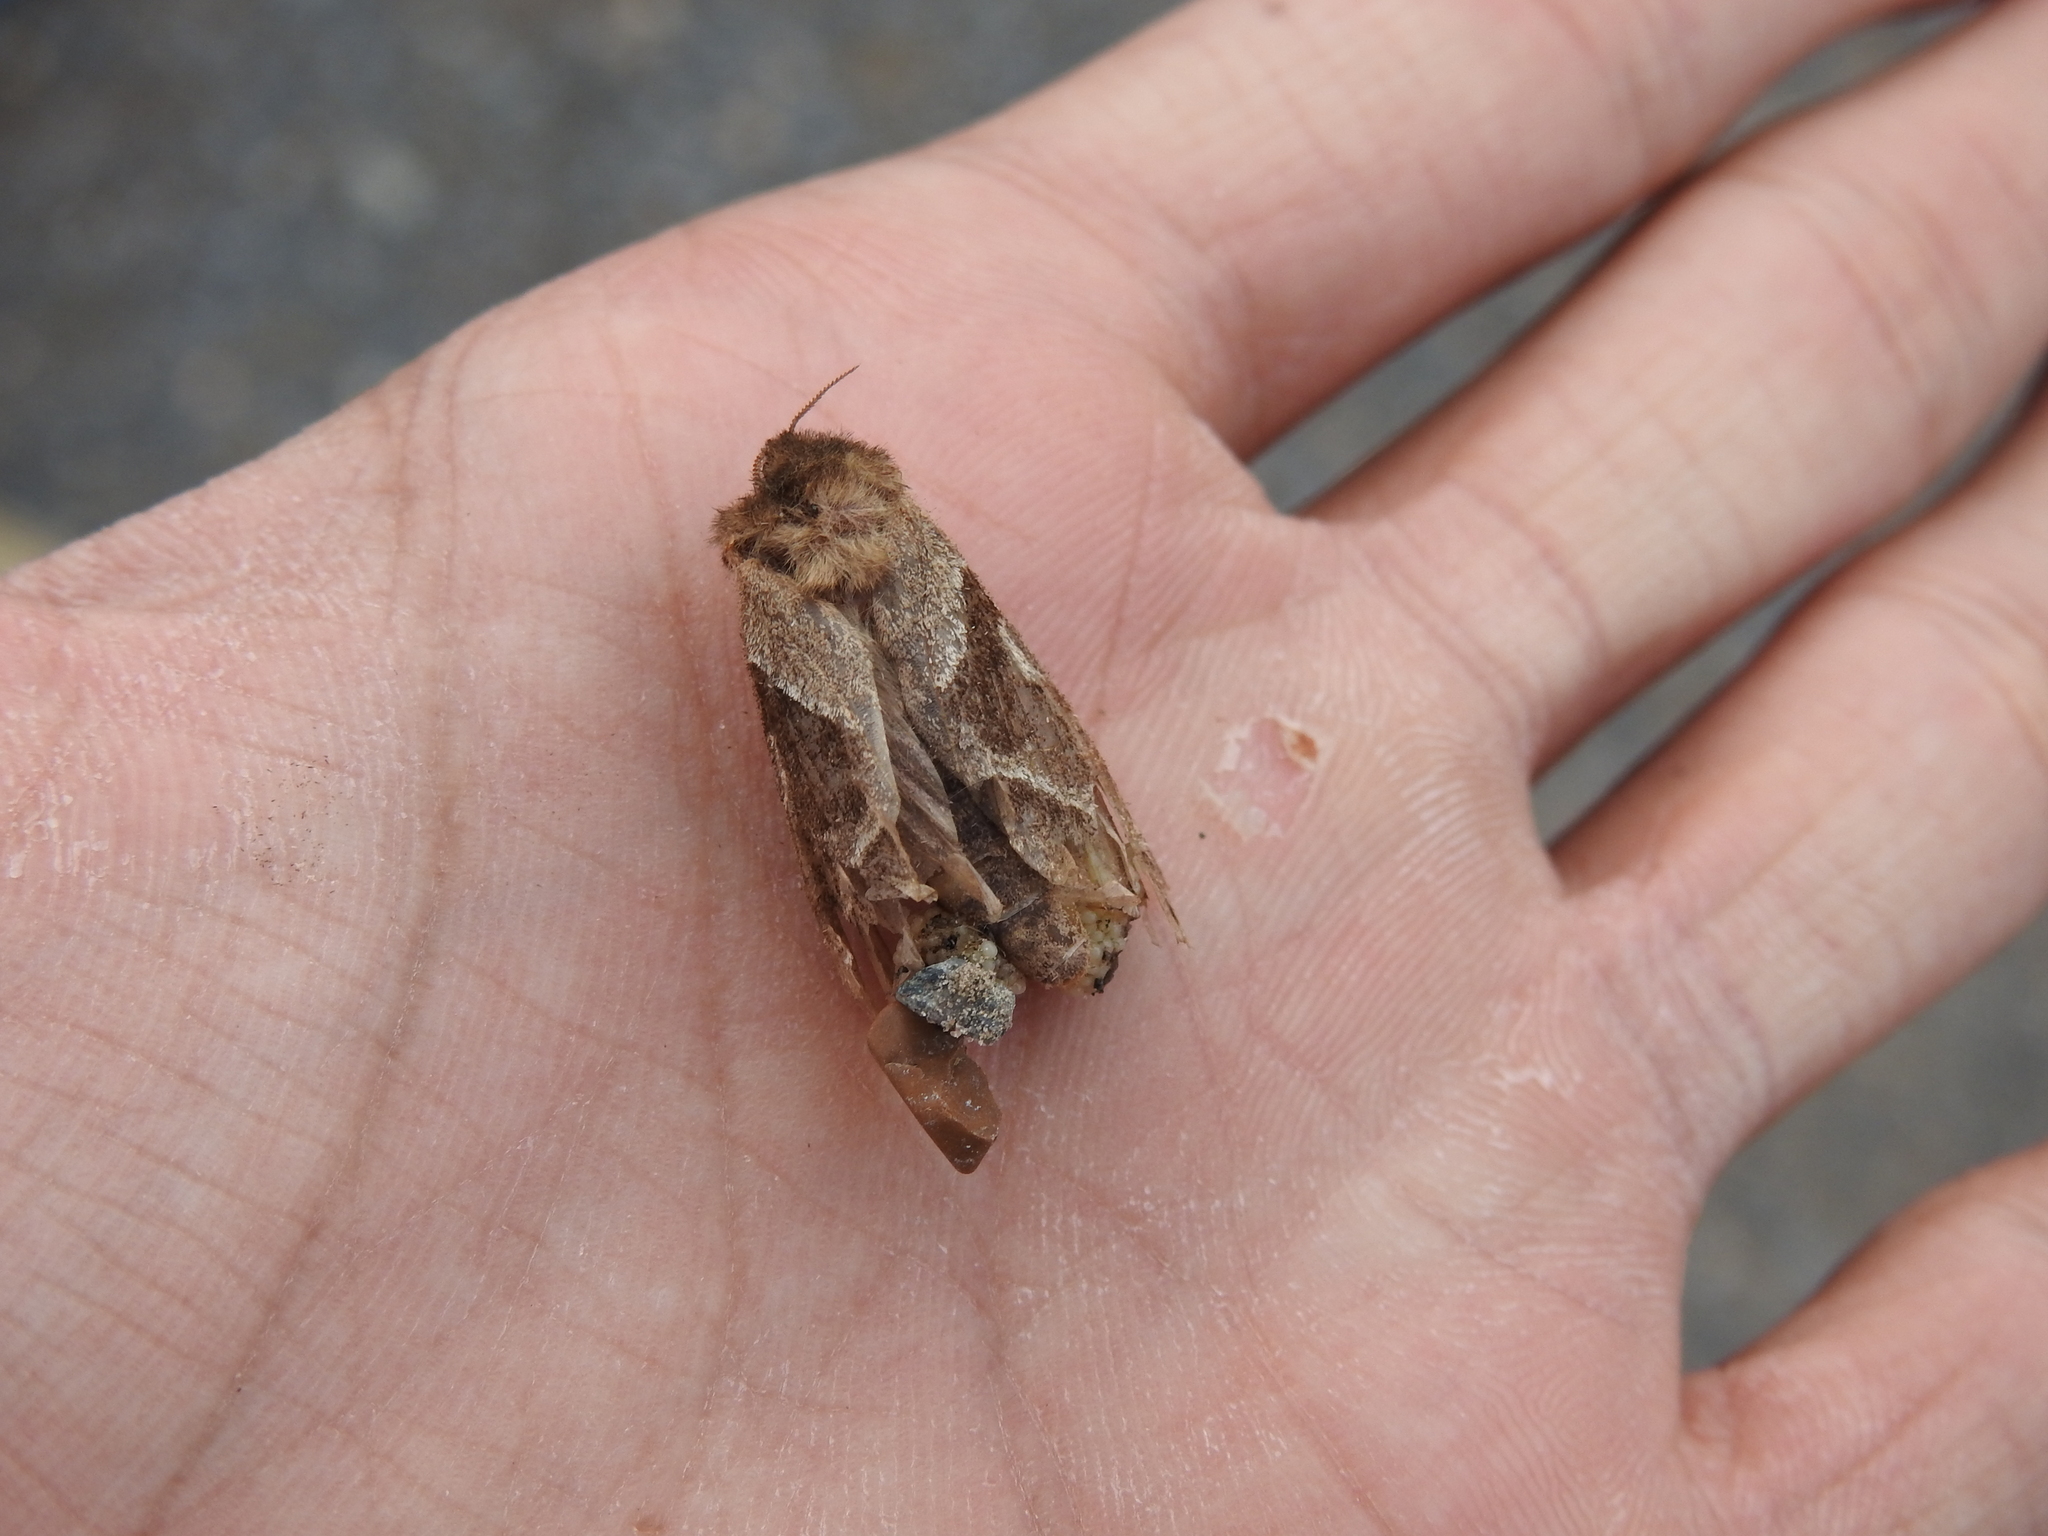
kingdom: Animalia
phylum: Arthropoda
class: Insecta
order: Lepidoptera
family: Hepialidae
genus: Triodia
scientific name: Triodia sylvina
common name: Orange swift
